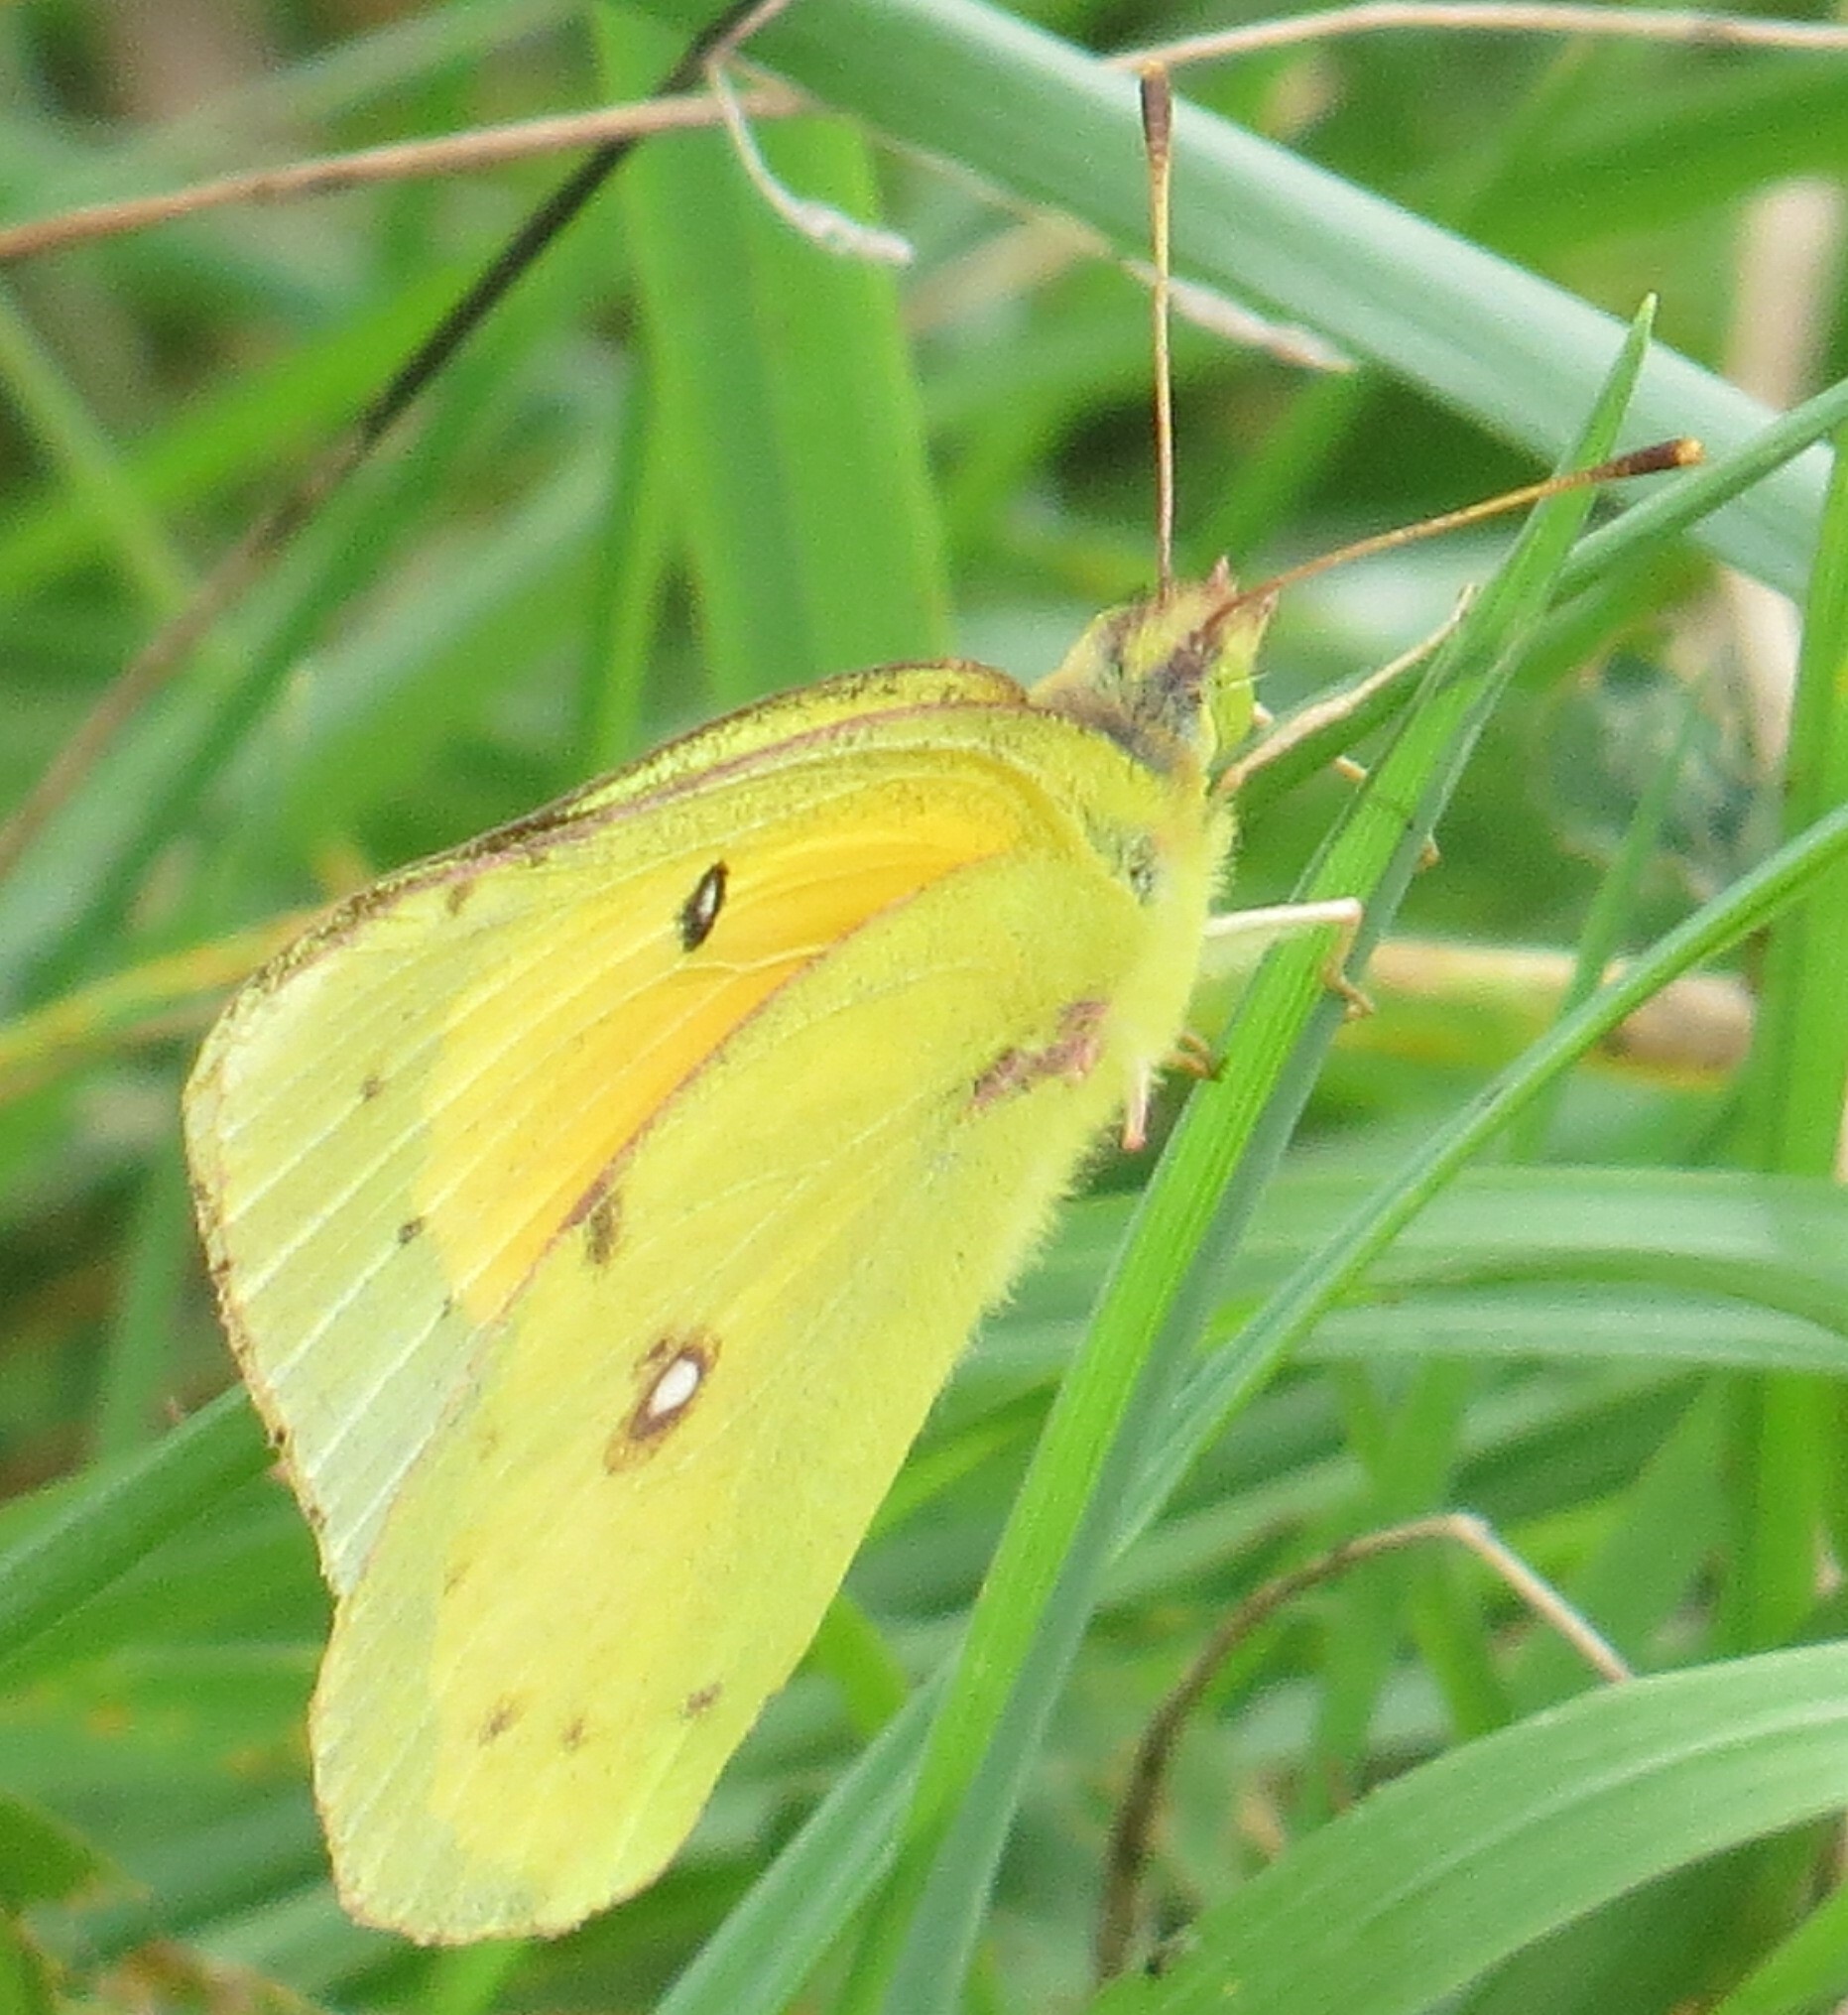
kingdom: Animalia
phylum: Arthropoda
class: Insecta
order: Lepidoptera
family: Pieridae
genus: Colias
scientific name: Colias philodice
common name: Clouded sulphur
